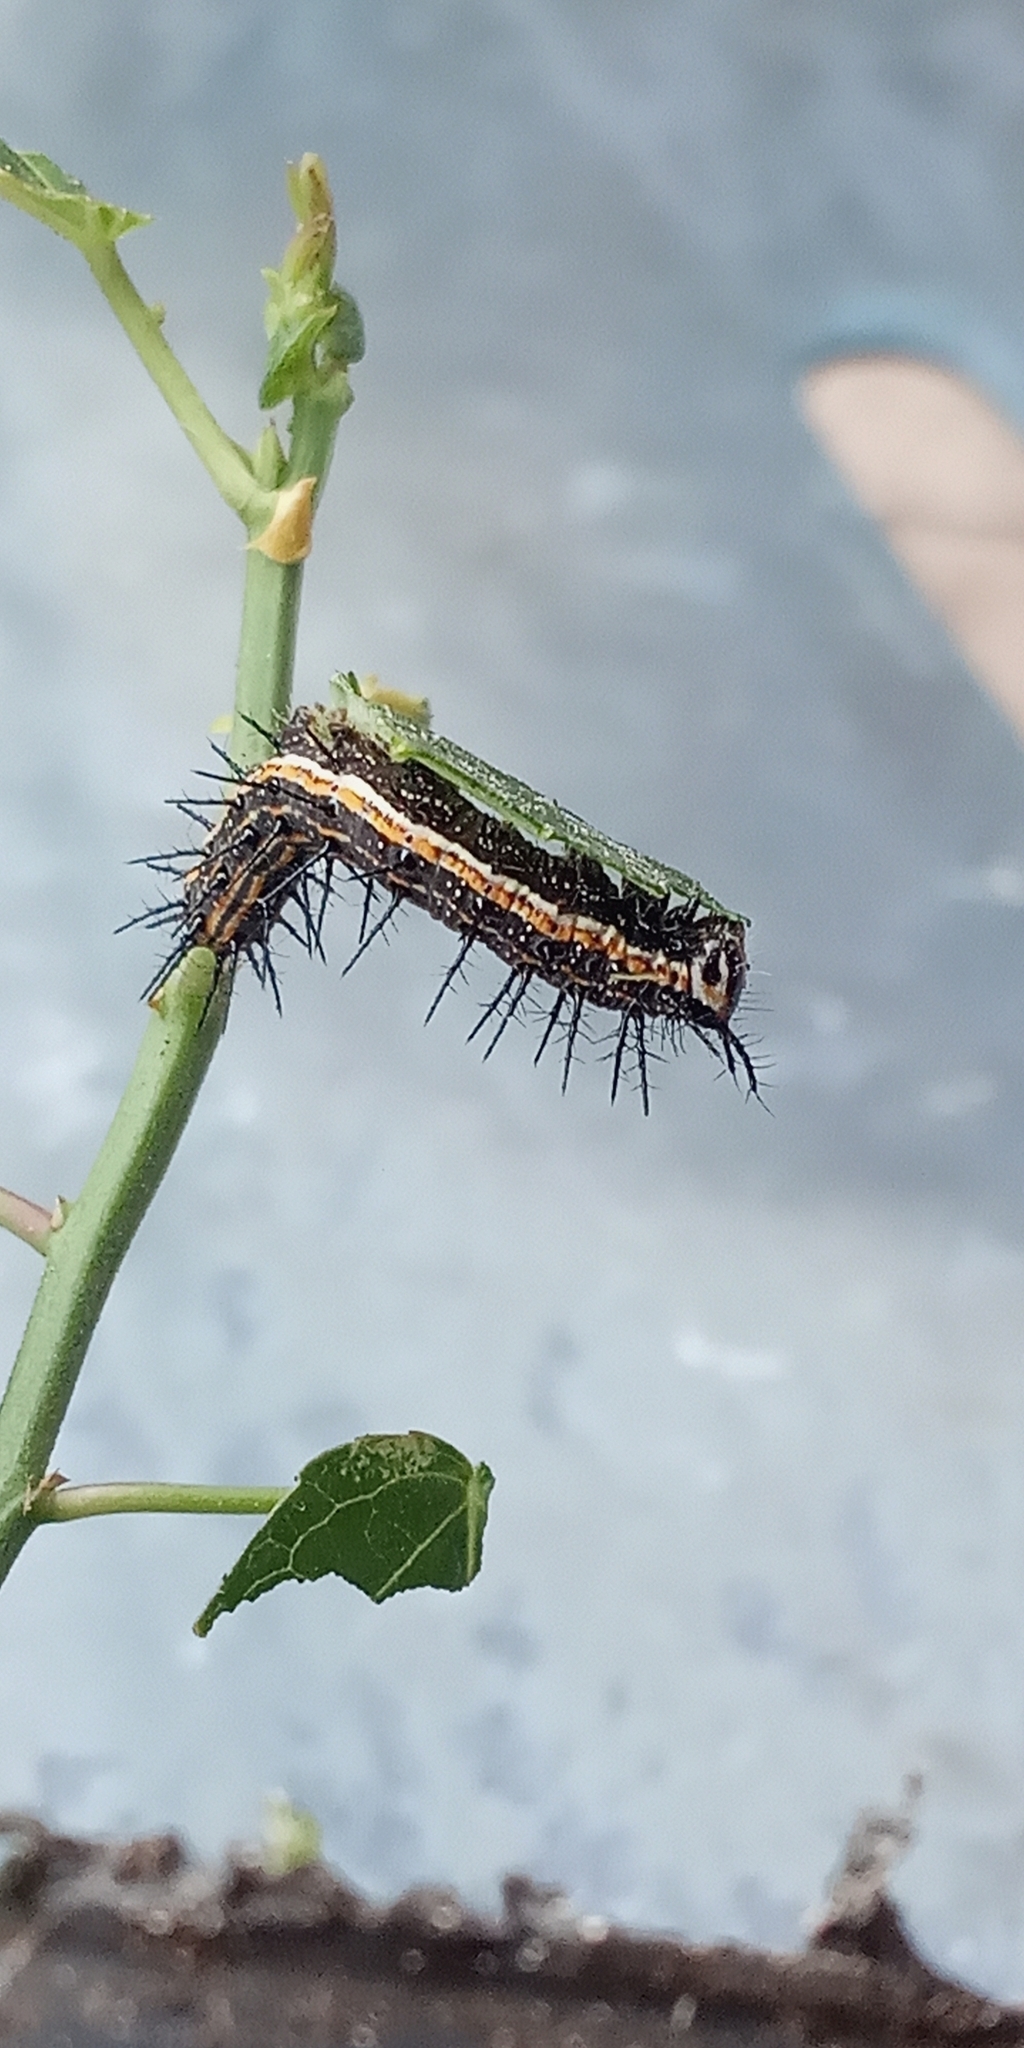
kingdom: Animalia
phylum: Arthropoda
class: Insecta
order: Lepidoptera
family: Nymphalidae
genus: Dione
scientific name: Dione vanillae
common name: Gulf fritillary
